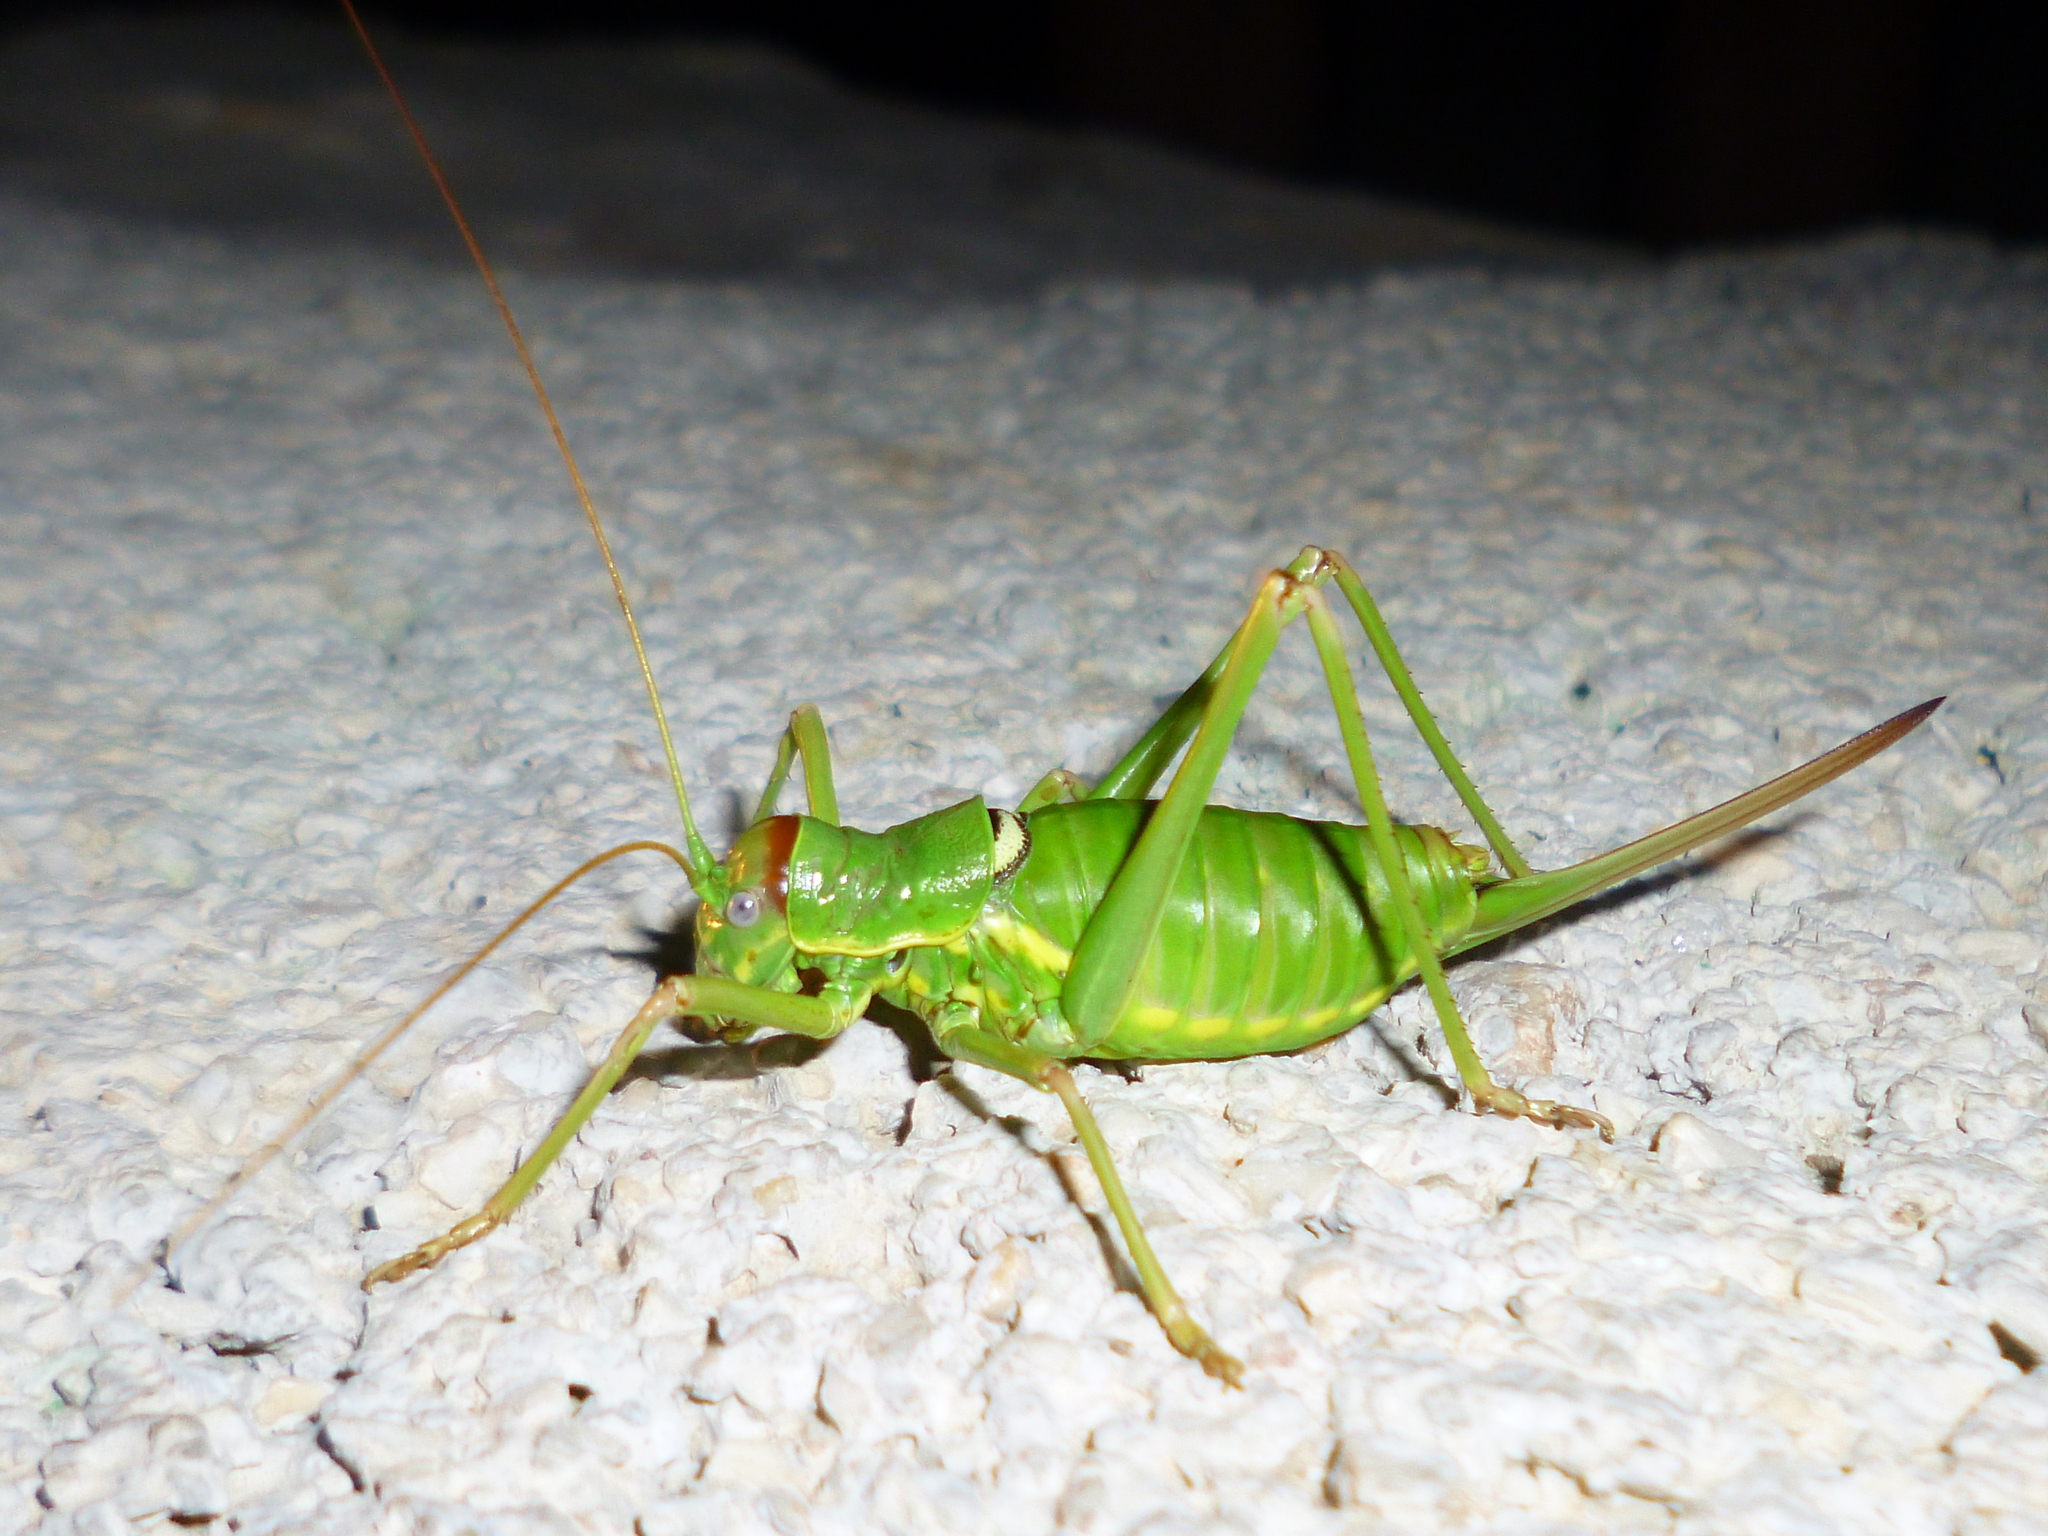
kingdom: Animalia
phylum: Arthropoda
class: Insecta
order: Orthoptera
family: Tettigoniidae
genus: Dinarippiger
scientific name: Dinarippiger discoidalis
